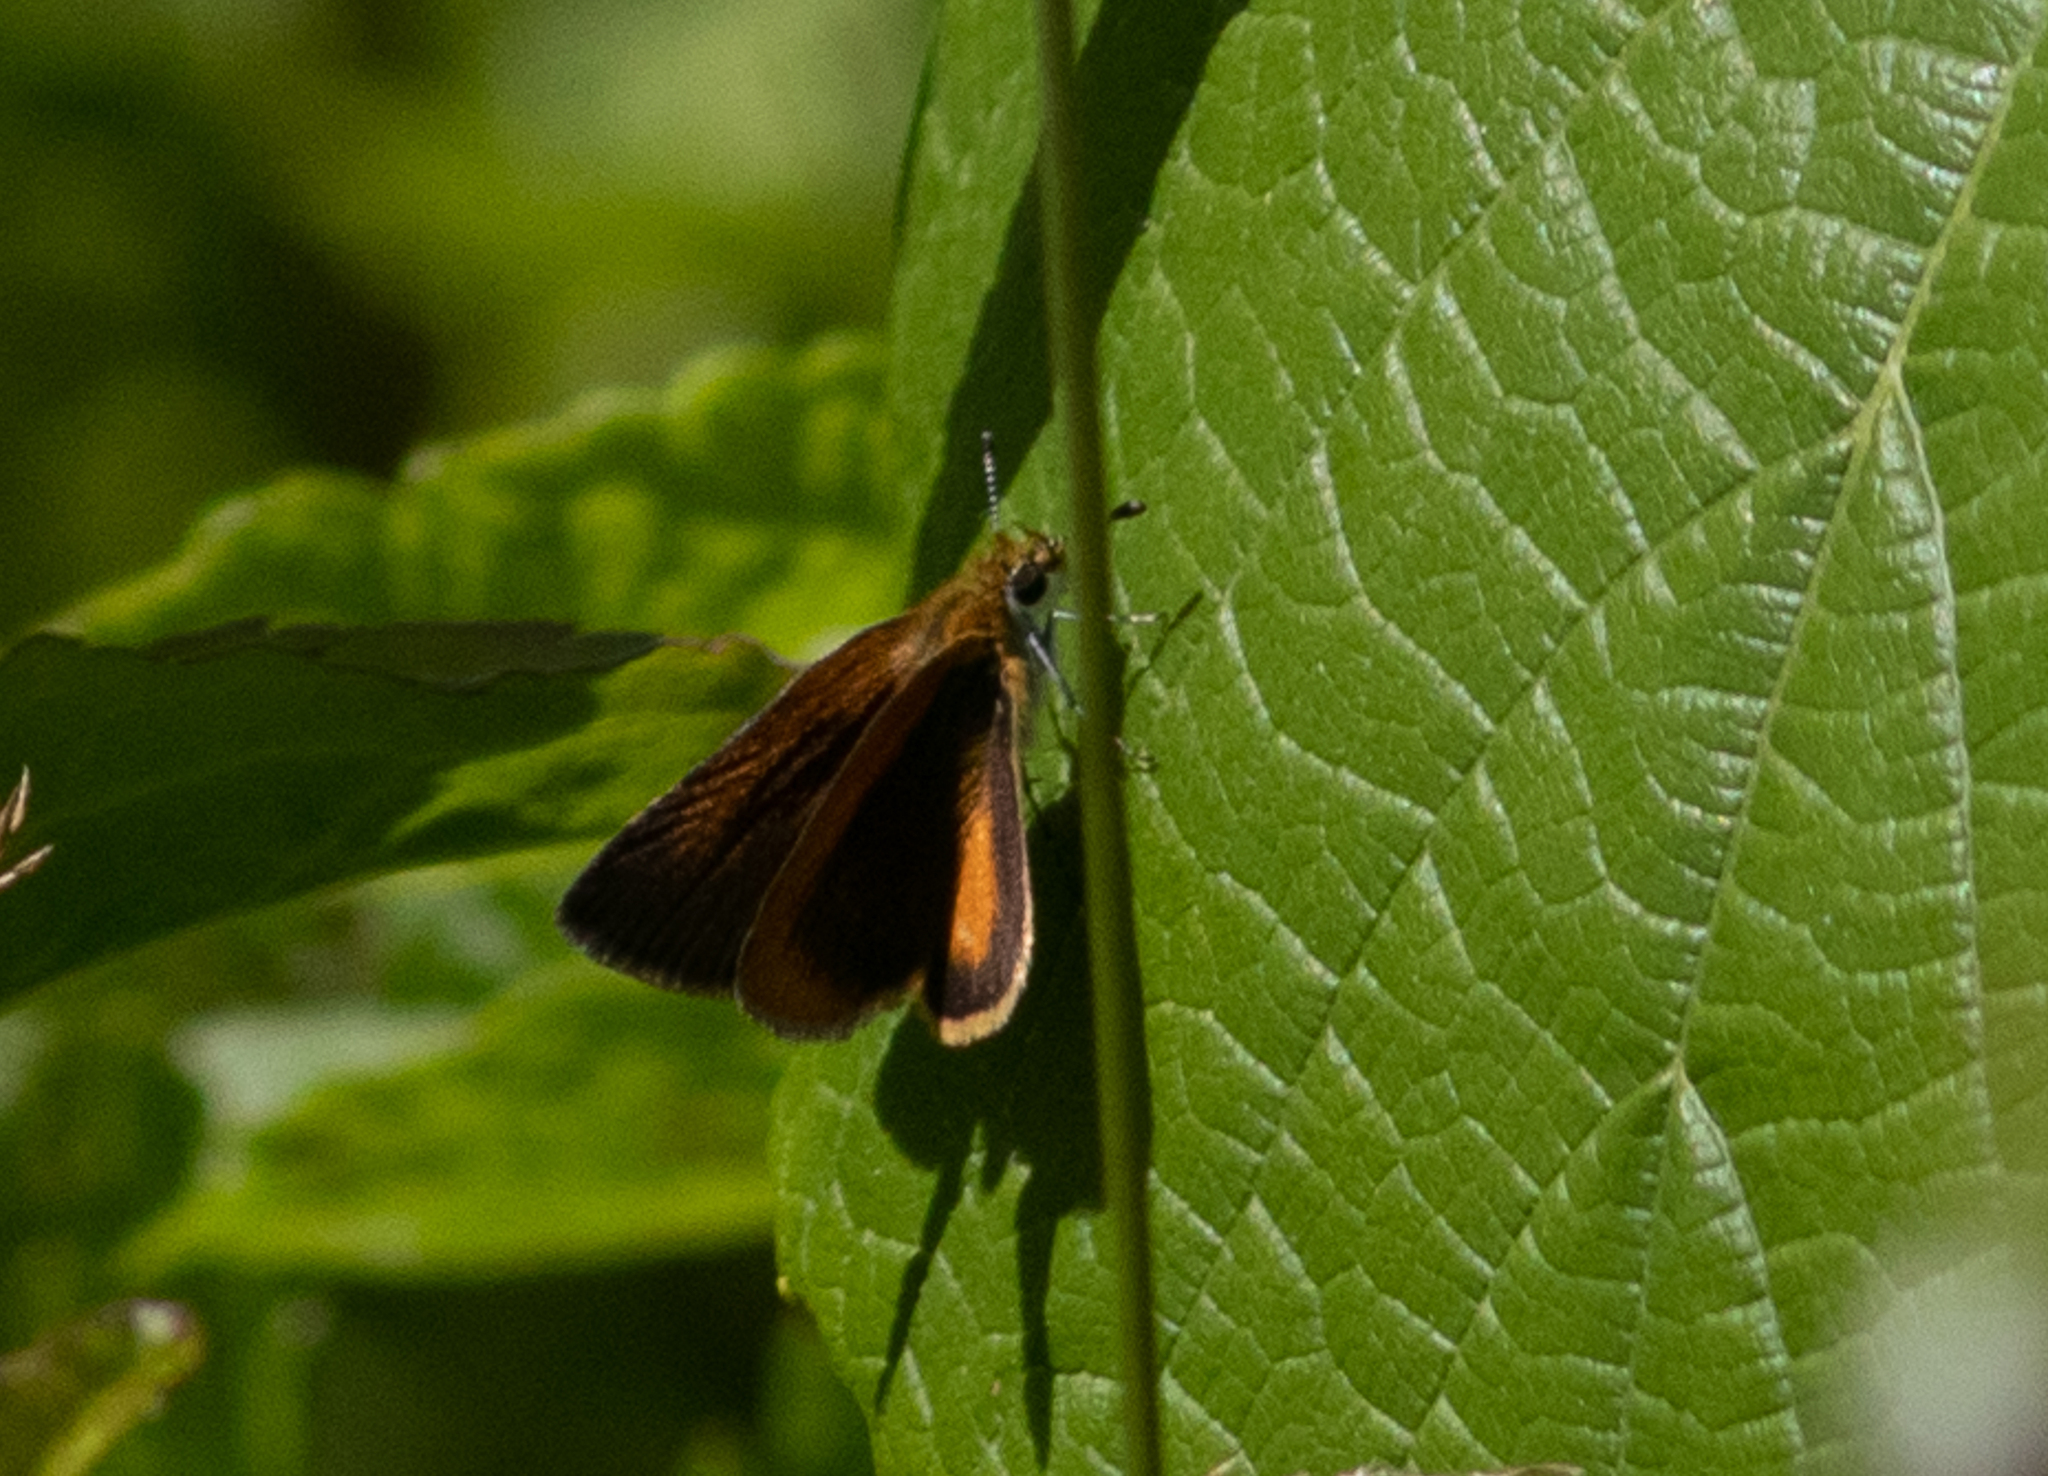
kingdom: Animalia
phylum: Arthropoda
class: Insecta
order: Lepidoptera
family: Hesperiidae
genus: Ancyloxypha
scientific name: Ancyloxypha numitor
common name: Least skipper
